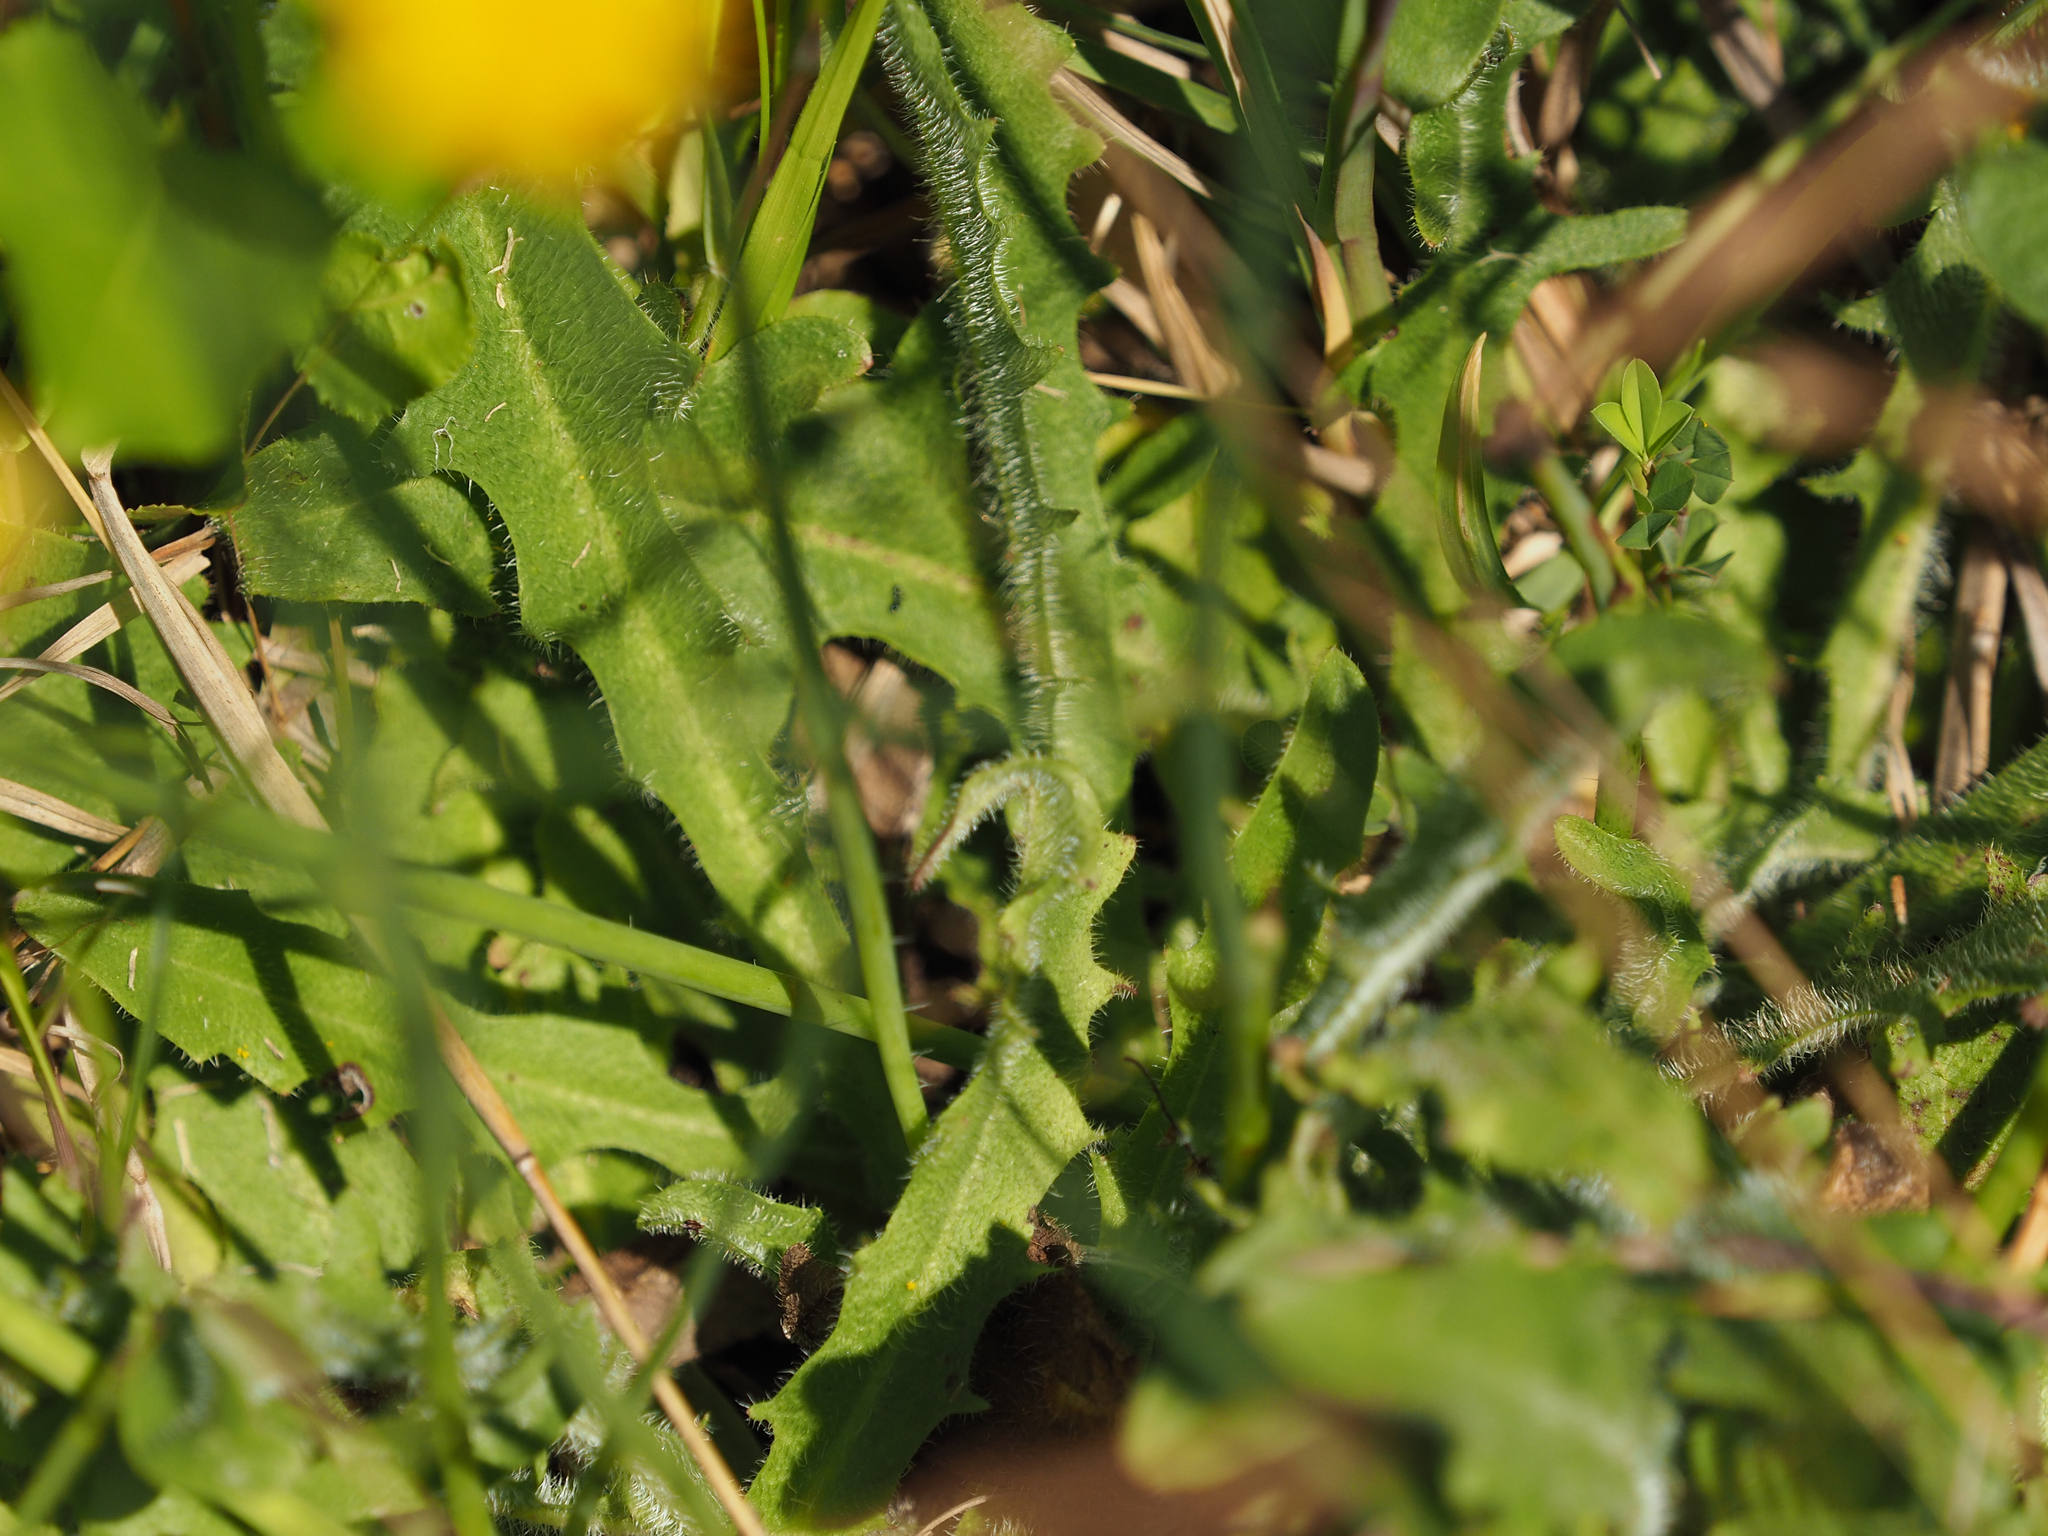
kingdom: Plantae
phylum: Tracheophyta
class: Magnoliopsida
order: Asterales
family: Asteraceae
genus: Hypochaeris
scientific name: Hypochaeris radicata
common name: Flatweed
